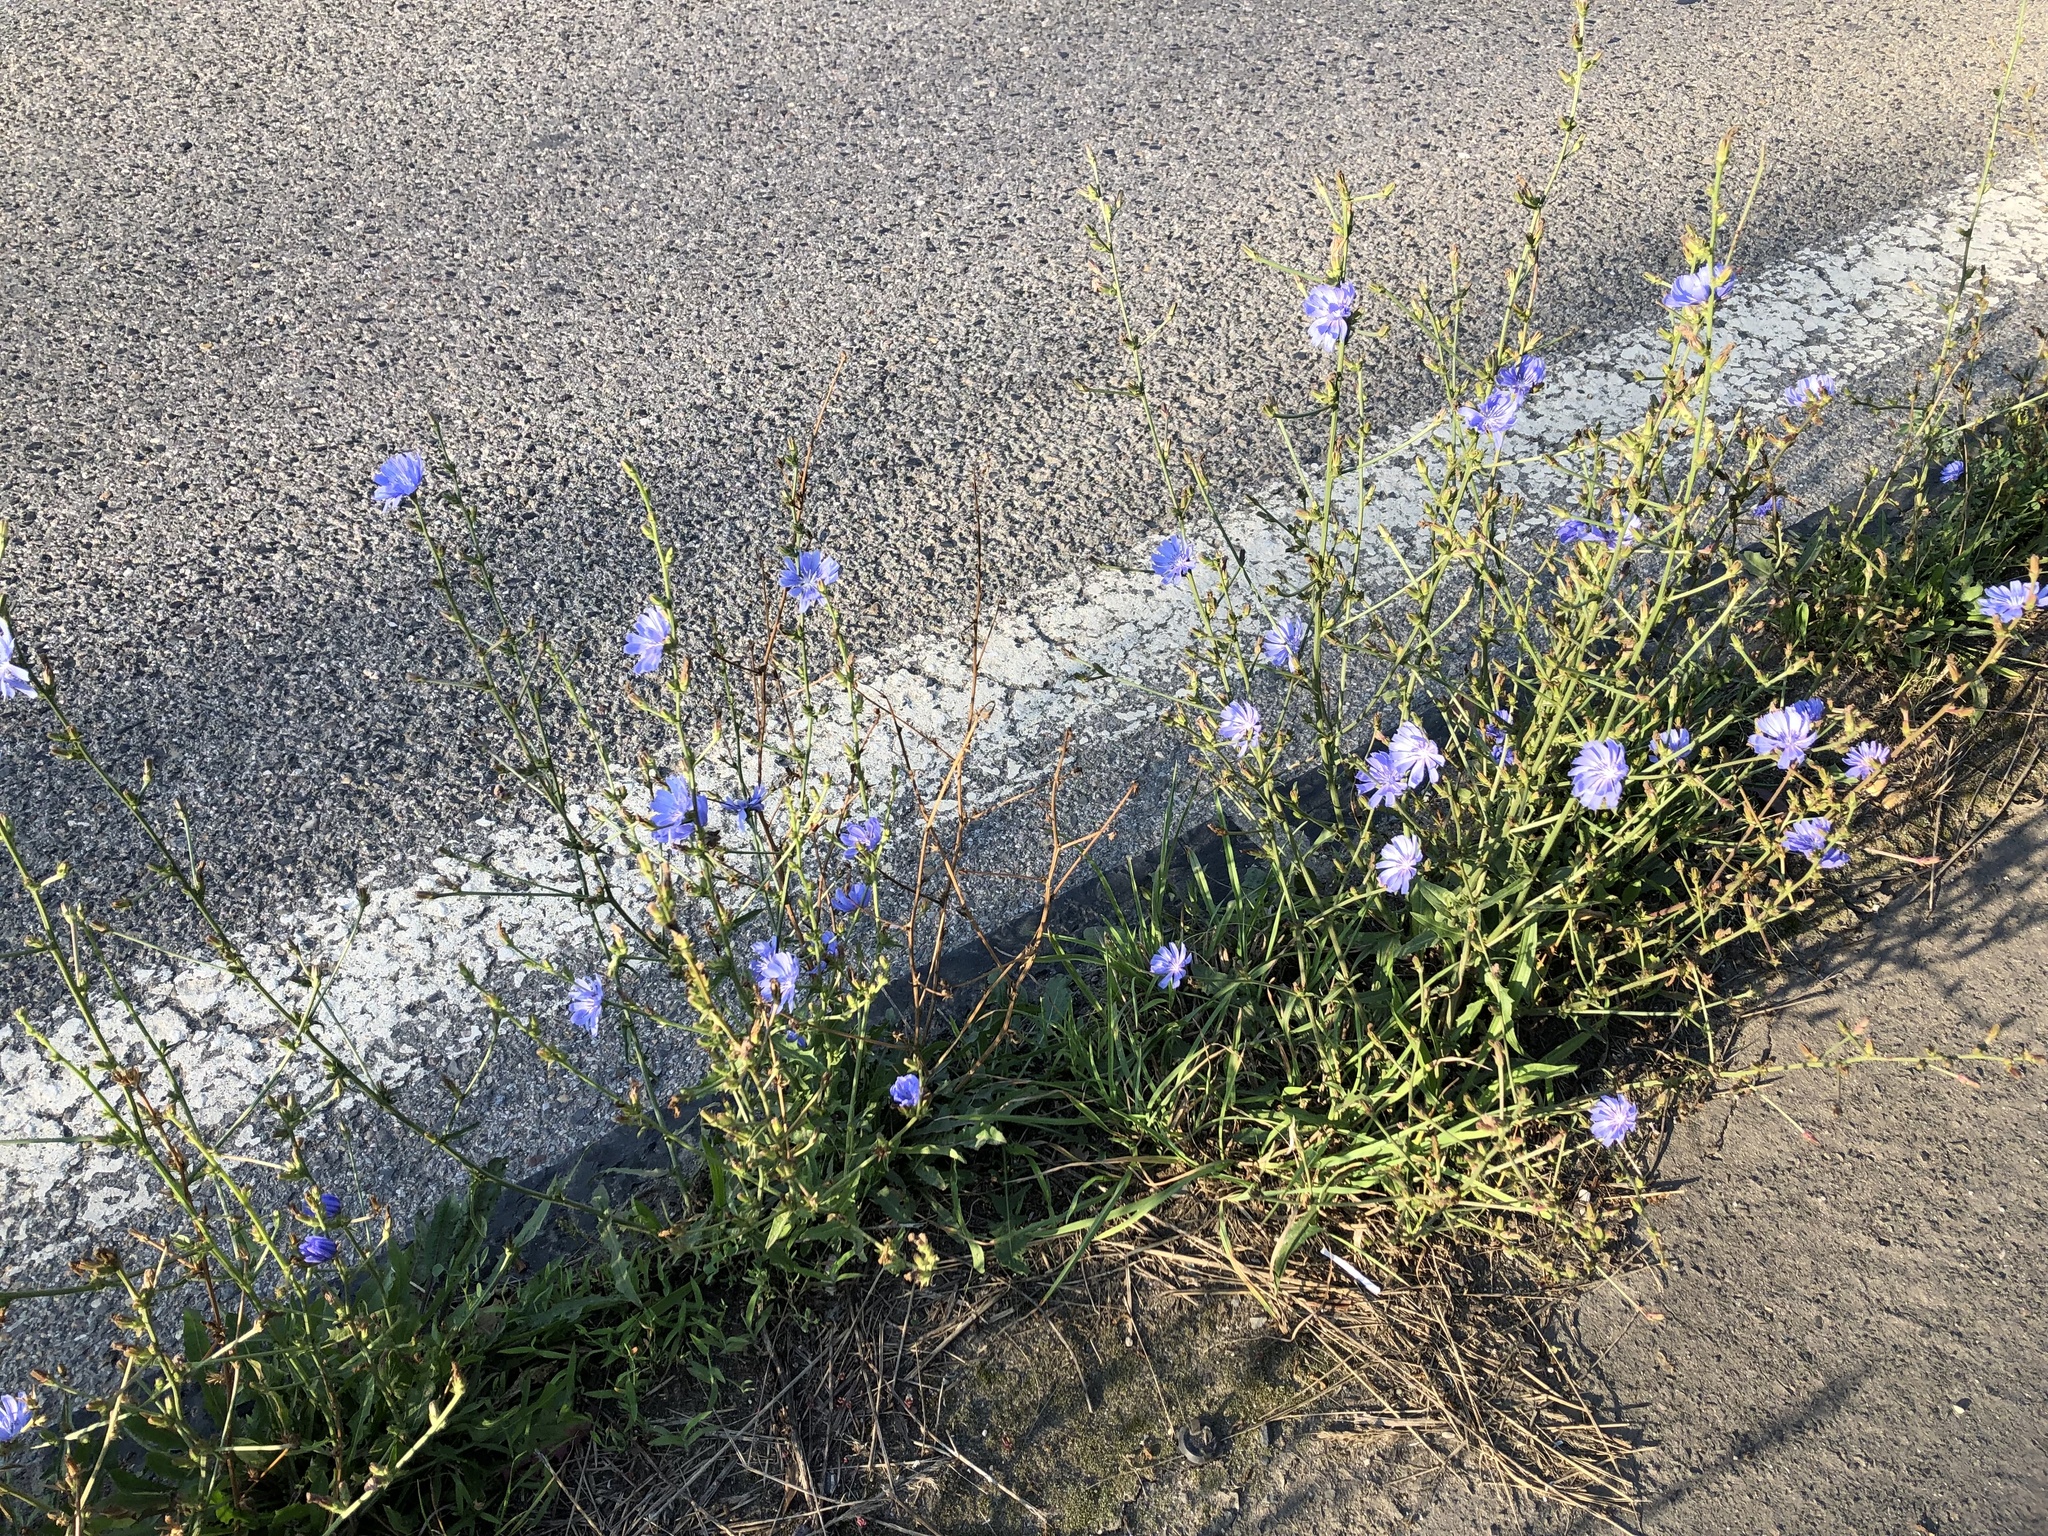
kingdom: Plantae
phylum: Tracheophyta
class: Magnoliopsida
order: Asterales
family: Asteraceae
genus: Cichorium
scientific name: Cichorium intybus
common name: Chicory
